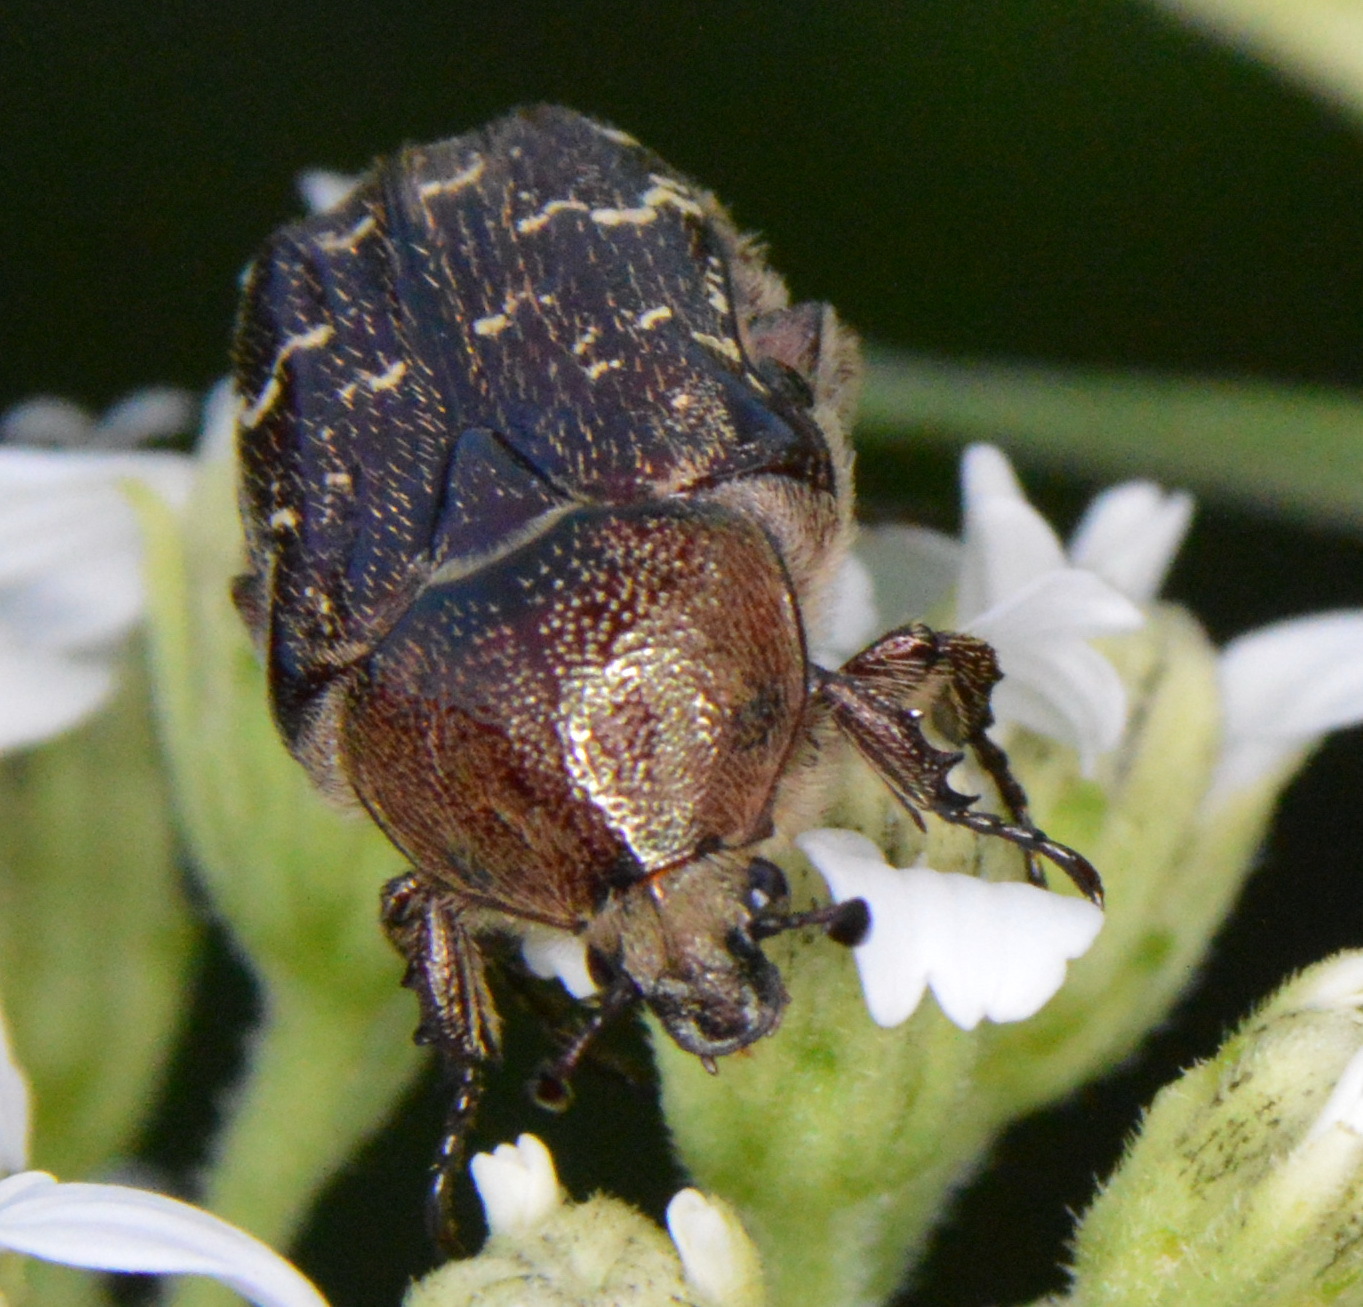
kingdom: Animalia
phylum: Arthropoda
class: Insecta
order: Coleoptera
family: Scarabaeidae
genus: Euphoria
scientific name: Euphoria sepulcralis
